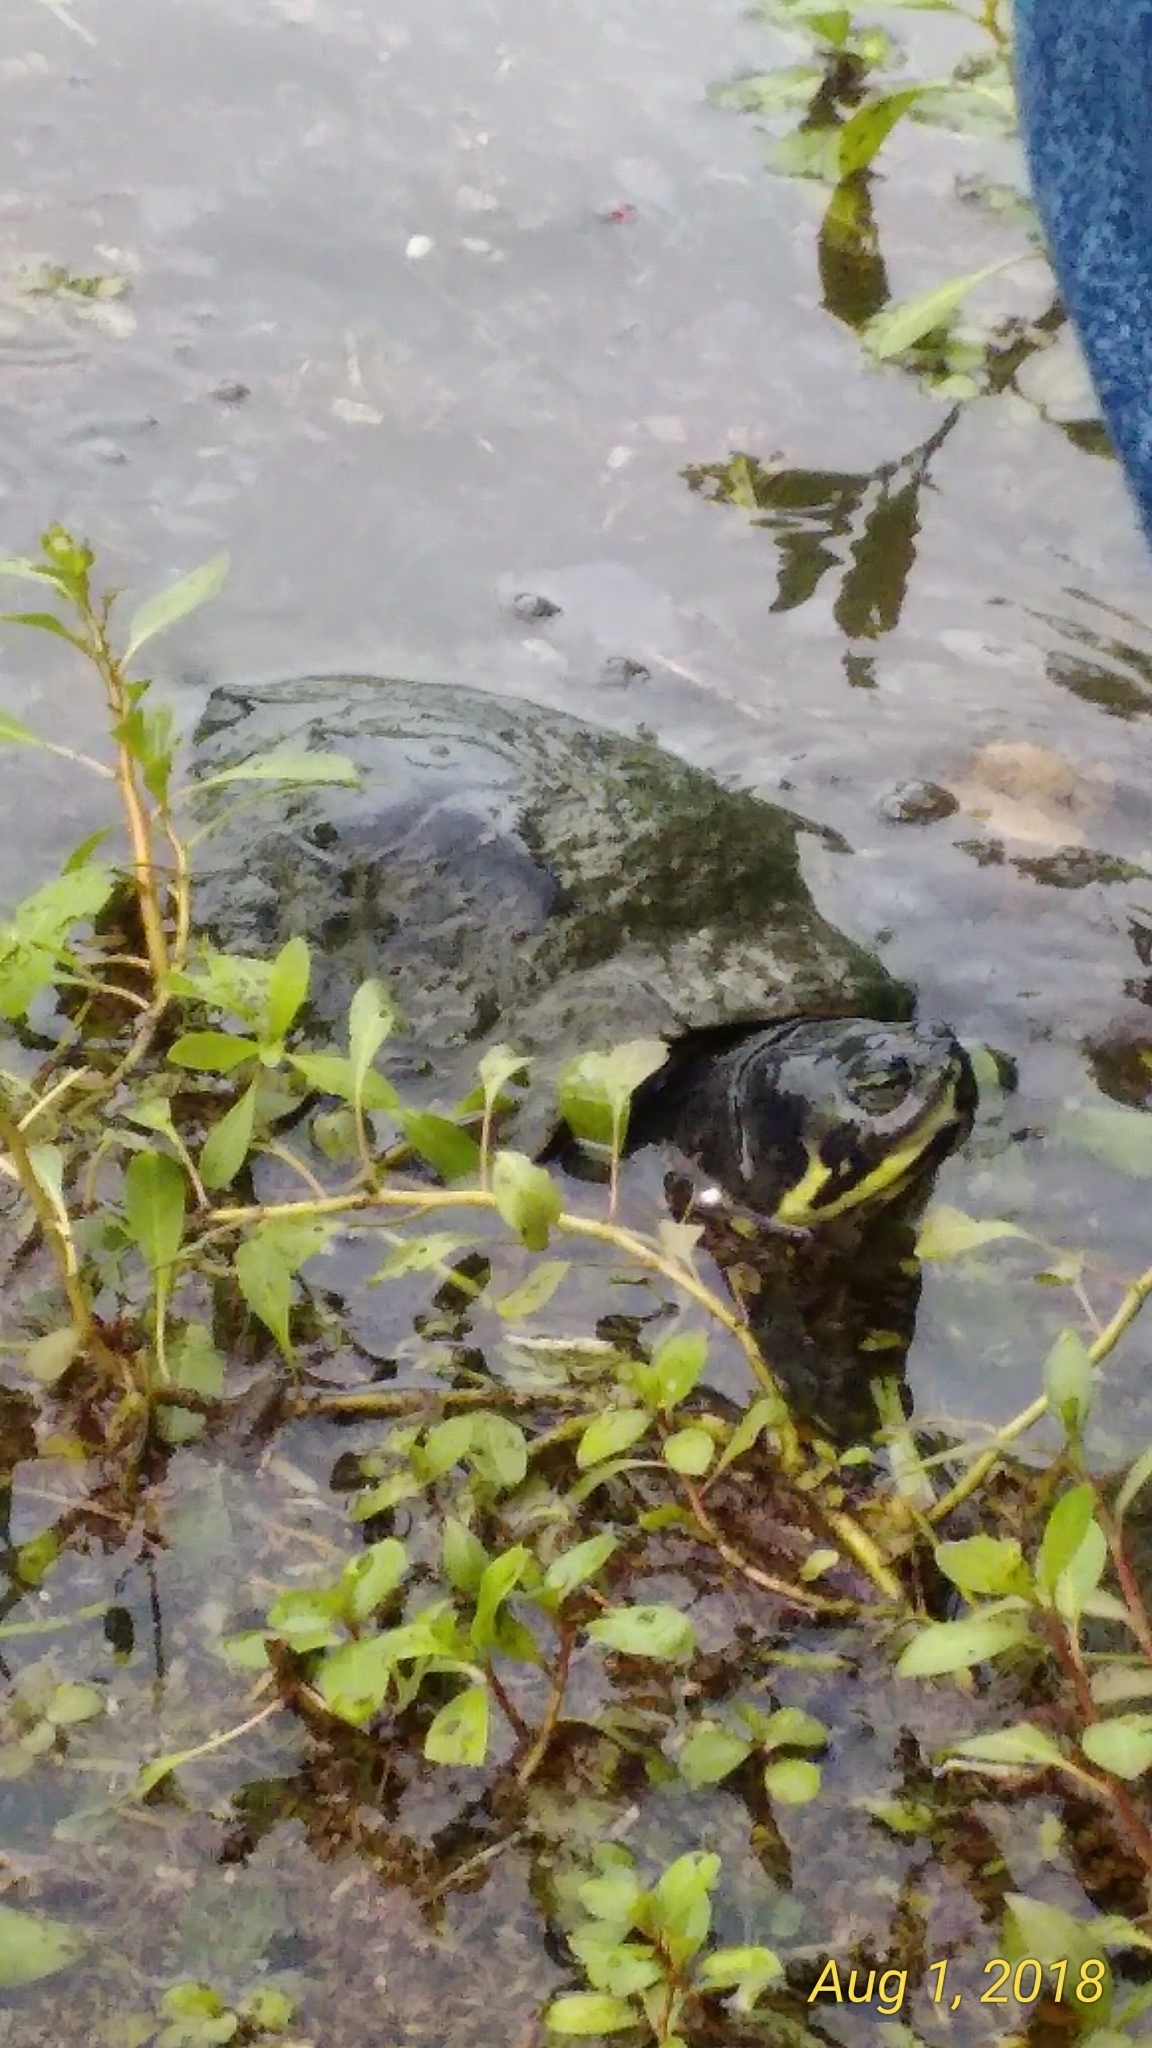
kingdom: Animalia
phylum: Chordata
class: Testudines
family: Emydidae
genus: Trachemys
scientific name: Trachemys scripta
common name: Slider
